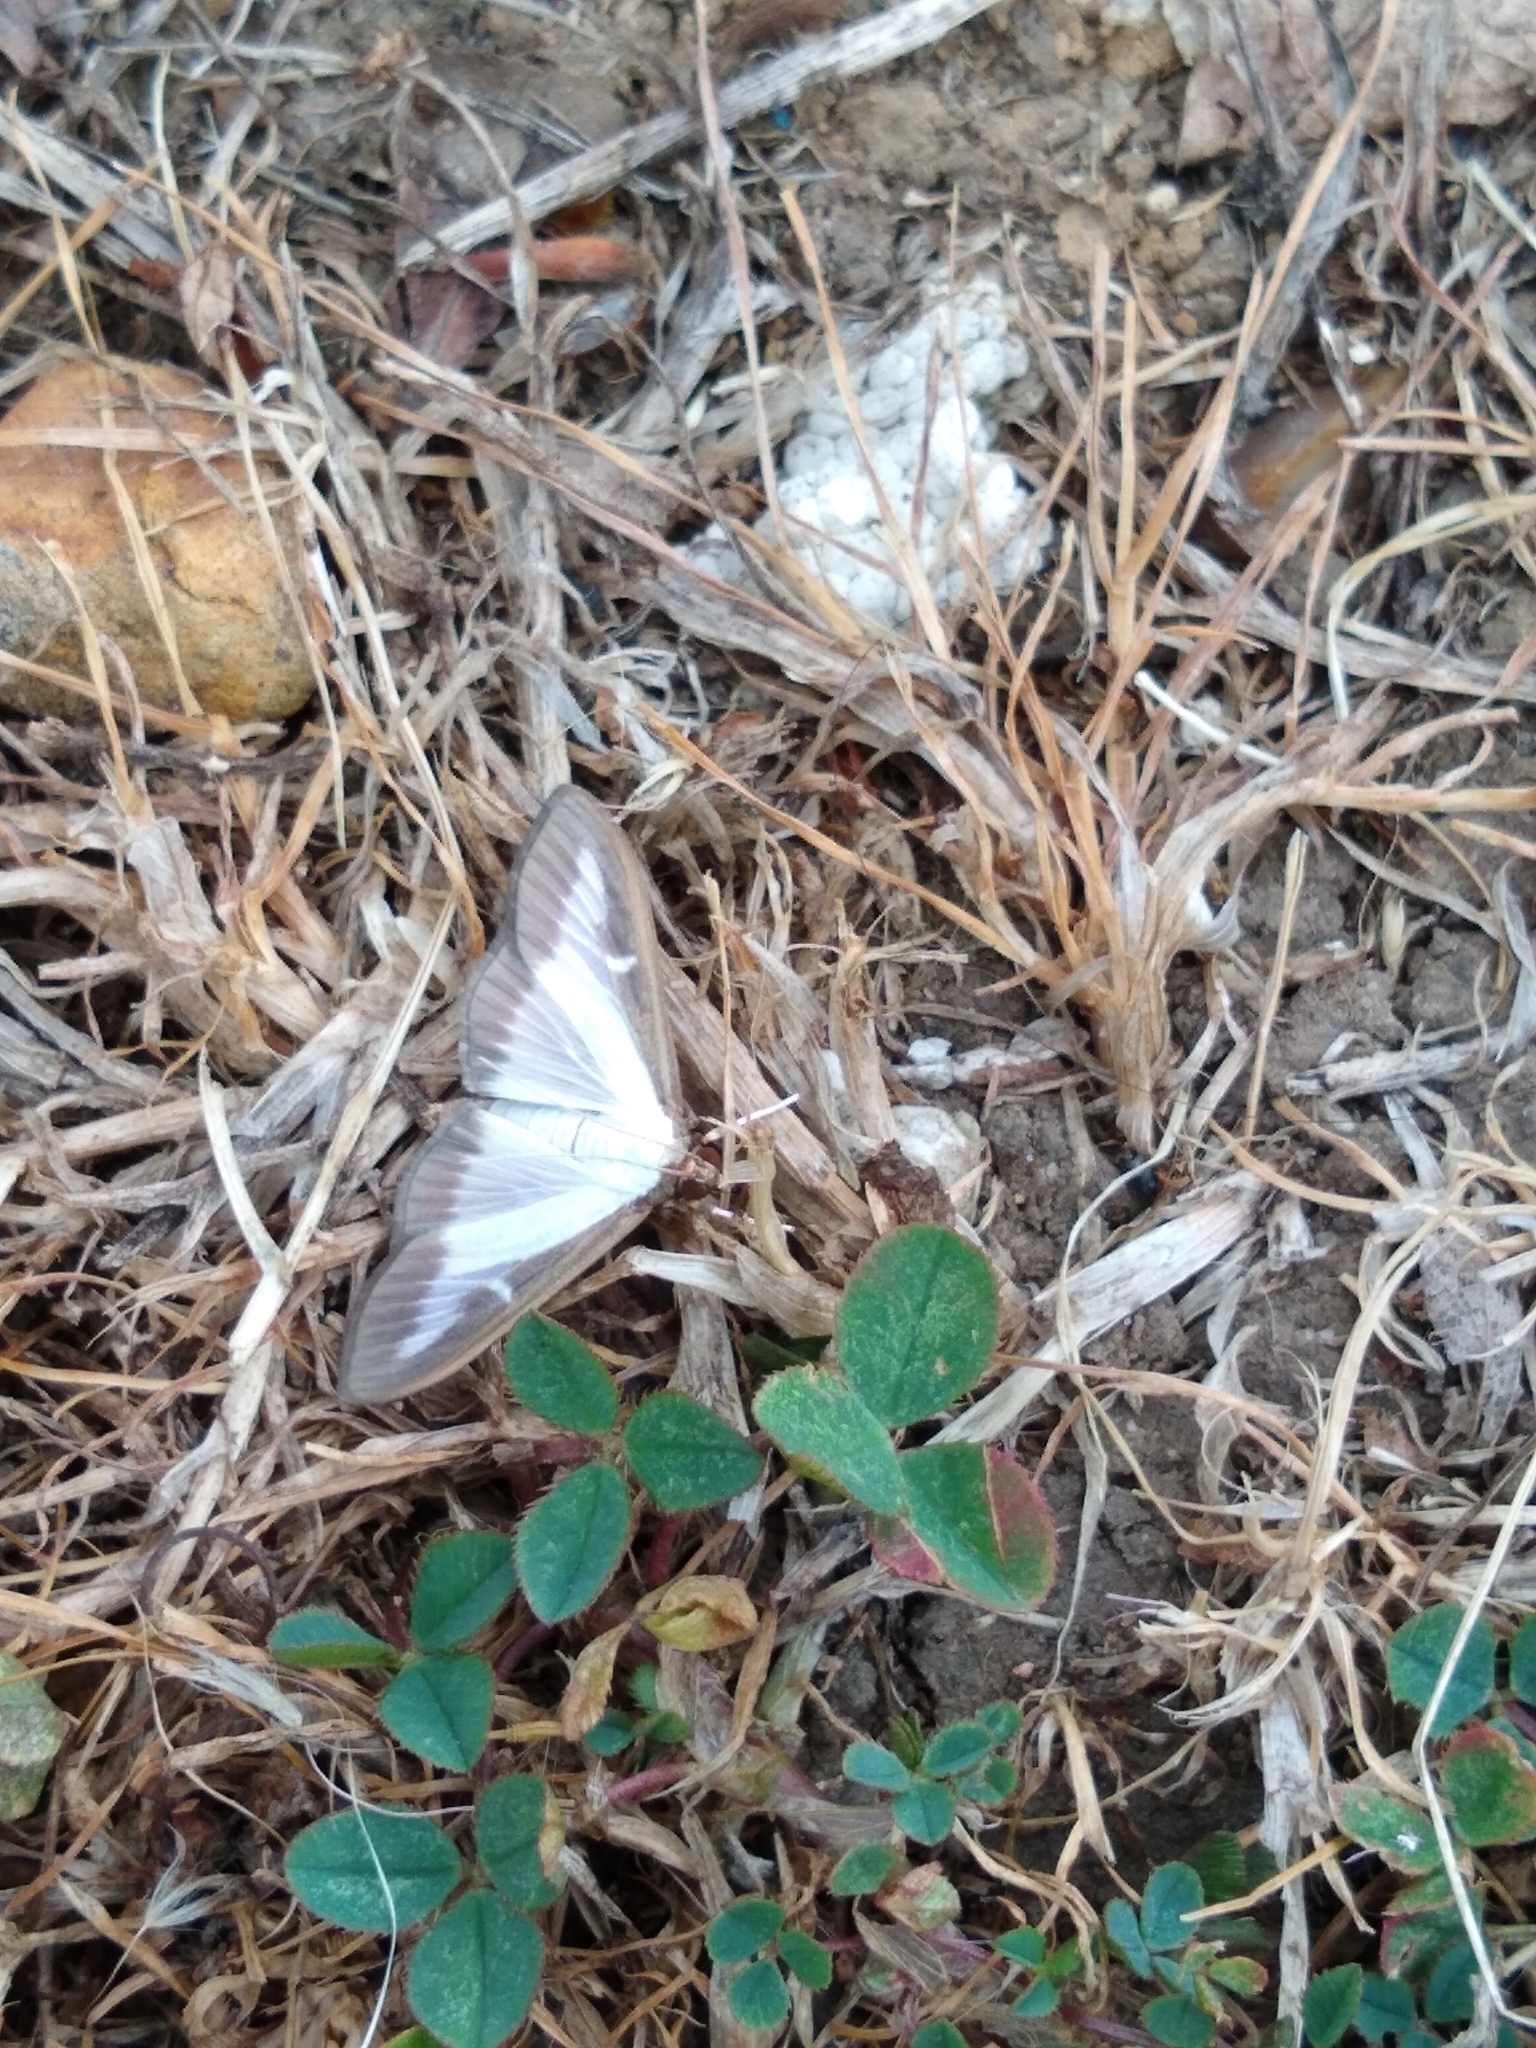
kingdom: Animalia
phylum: Arthropoda
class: Insecta
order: Lepidoptera
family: Crambidae
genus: Cydalima
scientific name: Cydalima perspectalis
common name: Box tree moth
